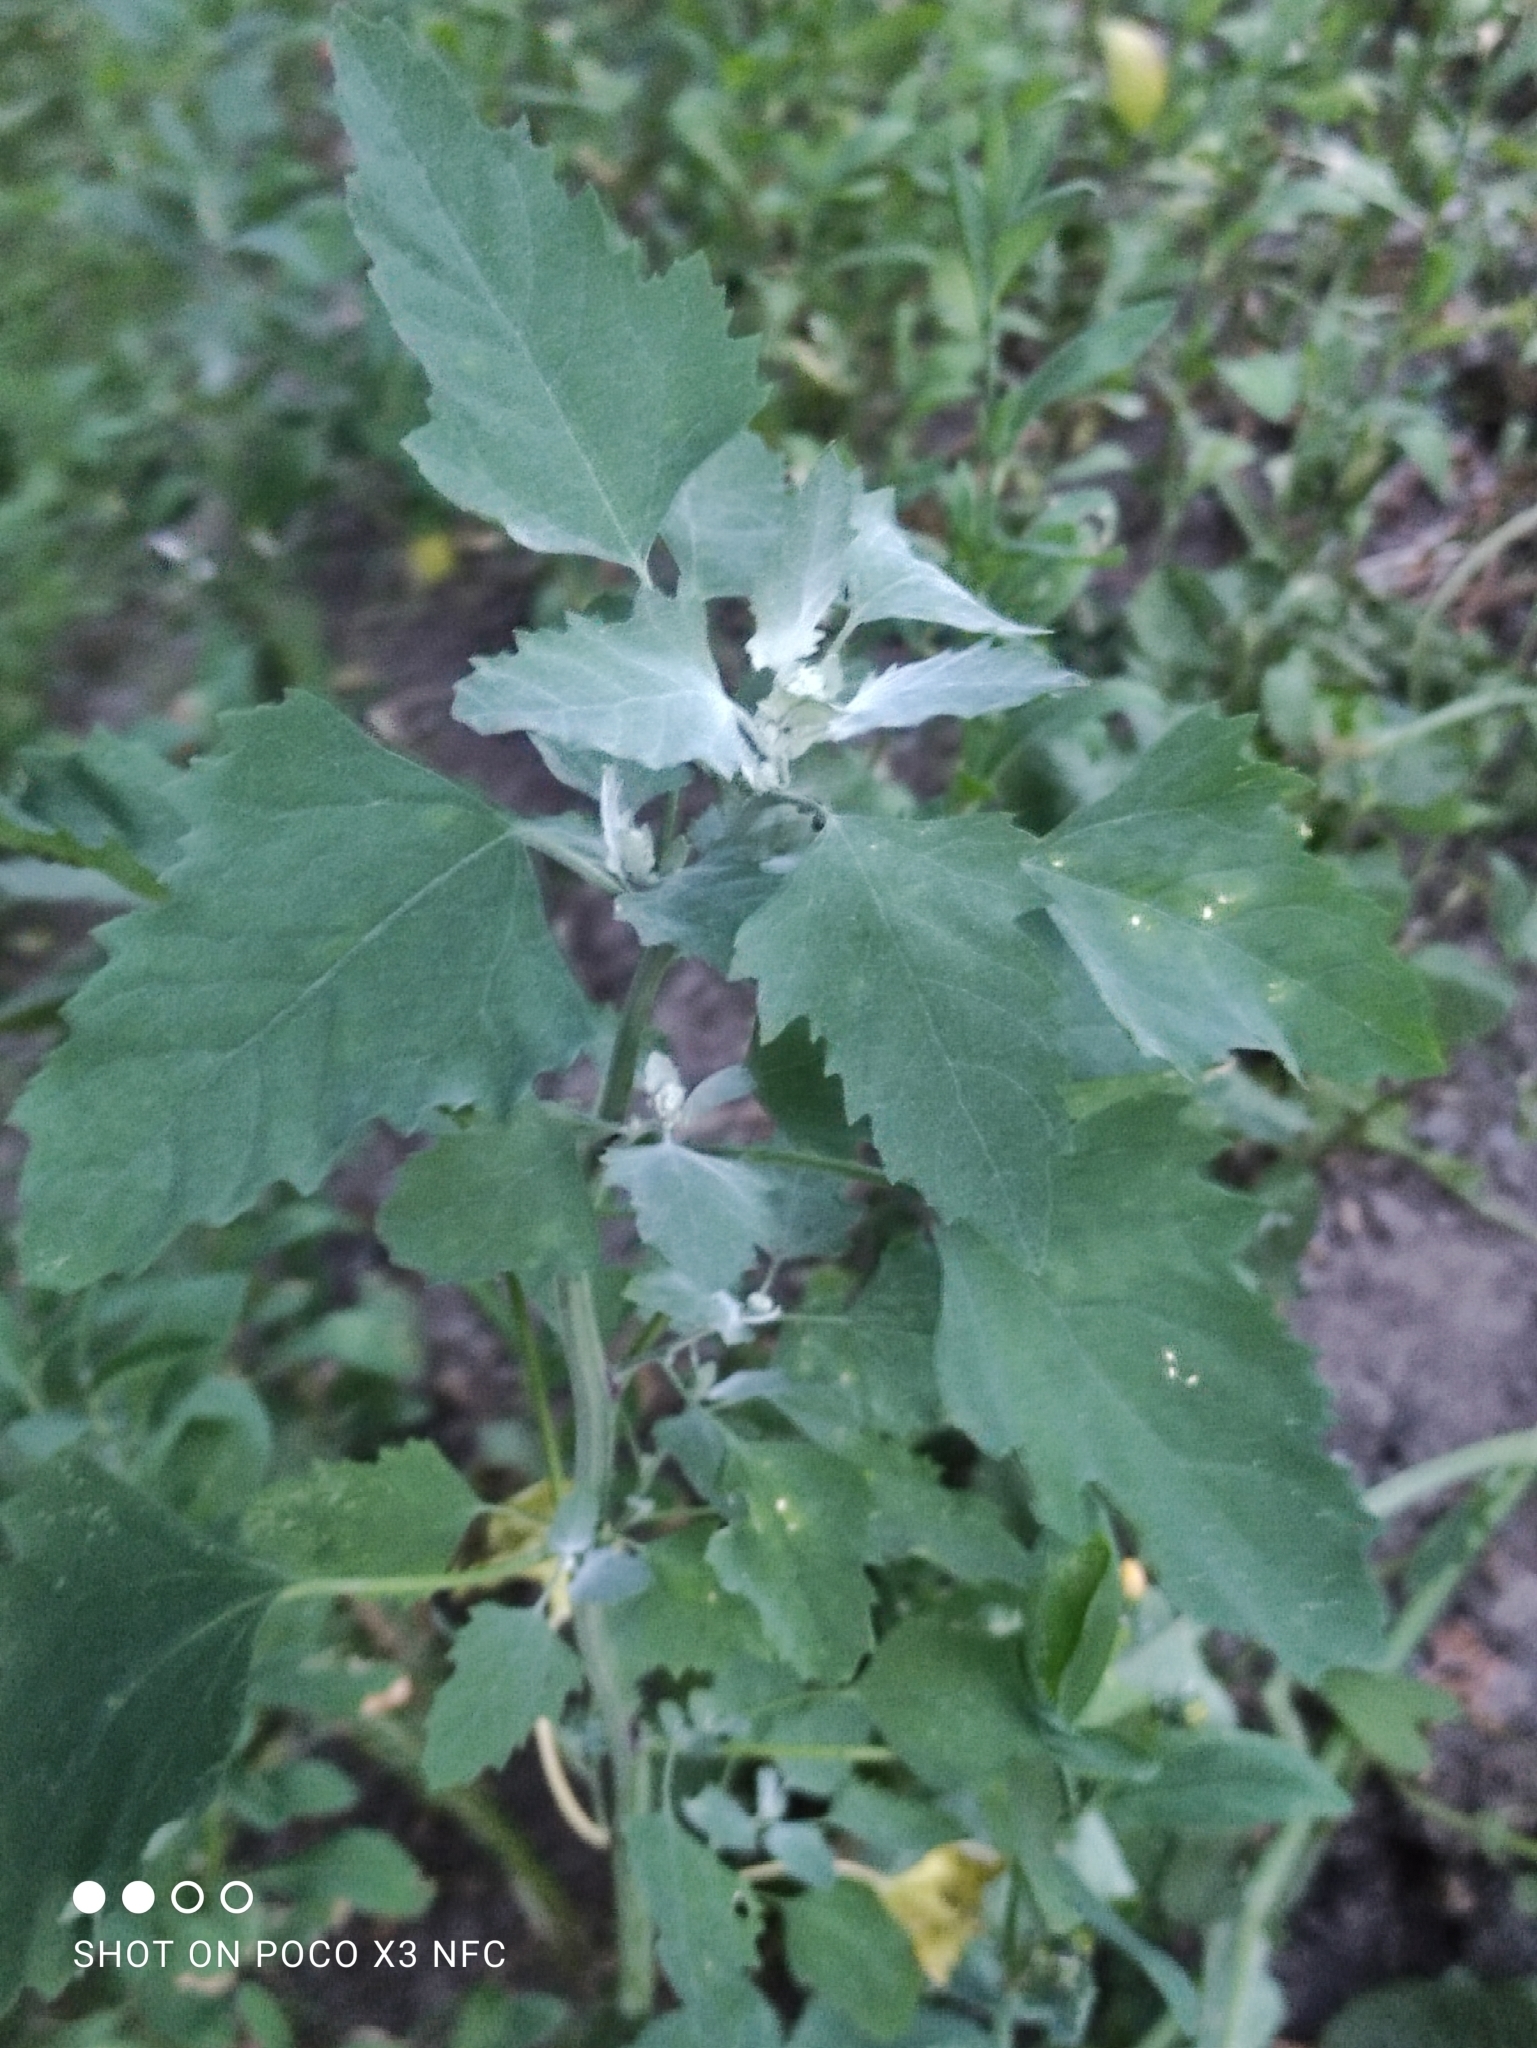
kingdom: Plantae
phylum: Tracheophyta
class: Magnoliopsida
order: Caryophyllales
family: Amaranthaceae
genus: Chenopodium
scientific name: Chenopodium album
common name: Fat-hen
